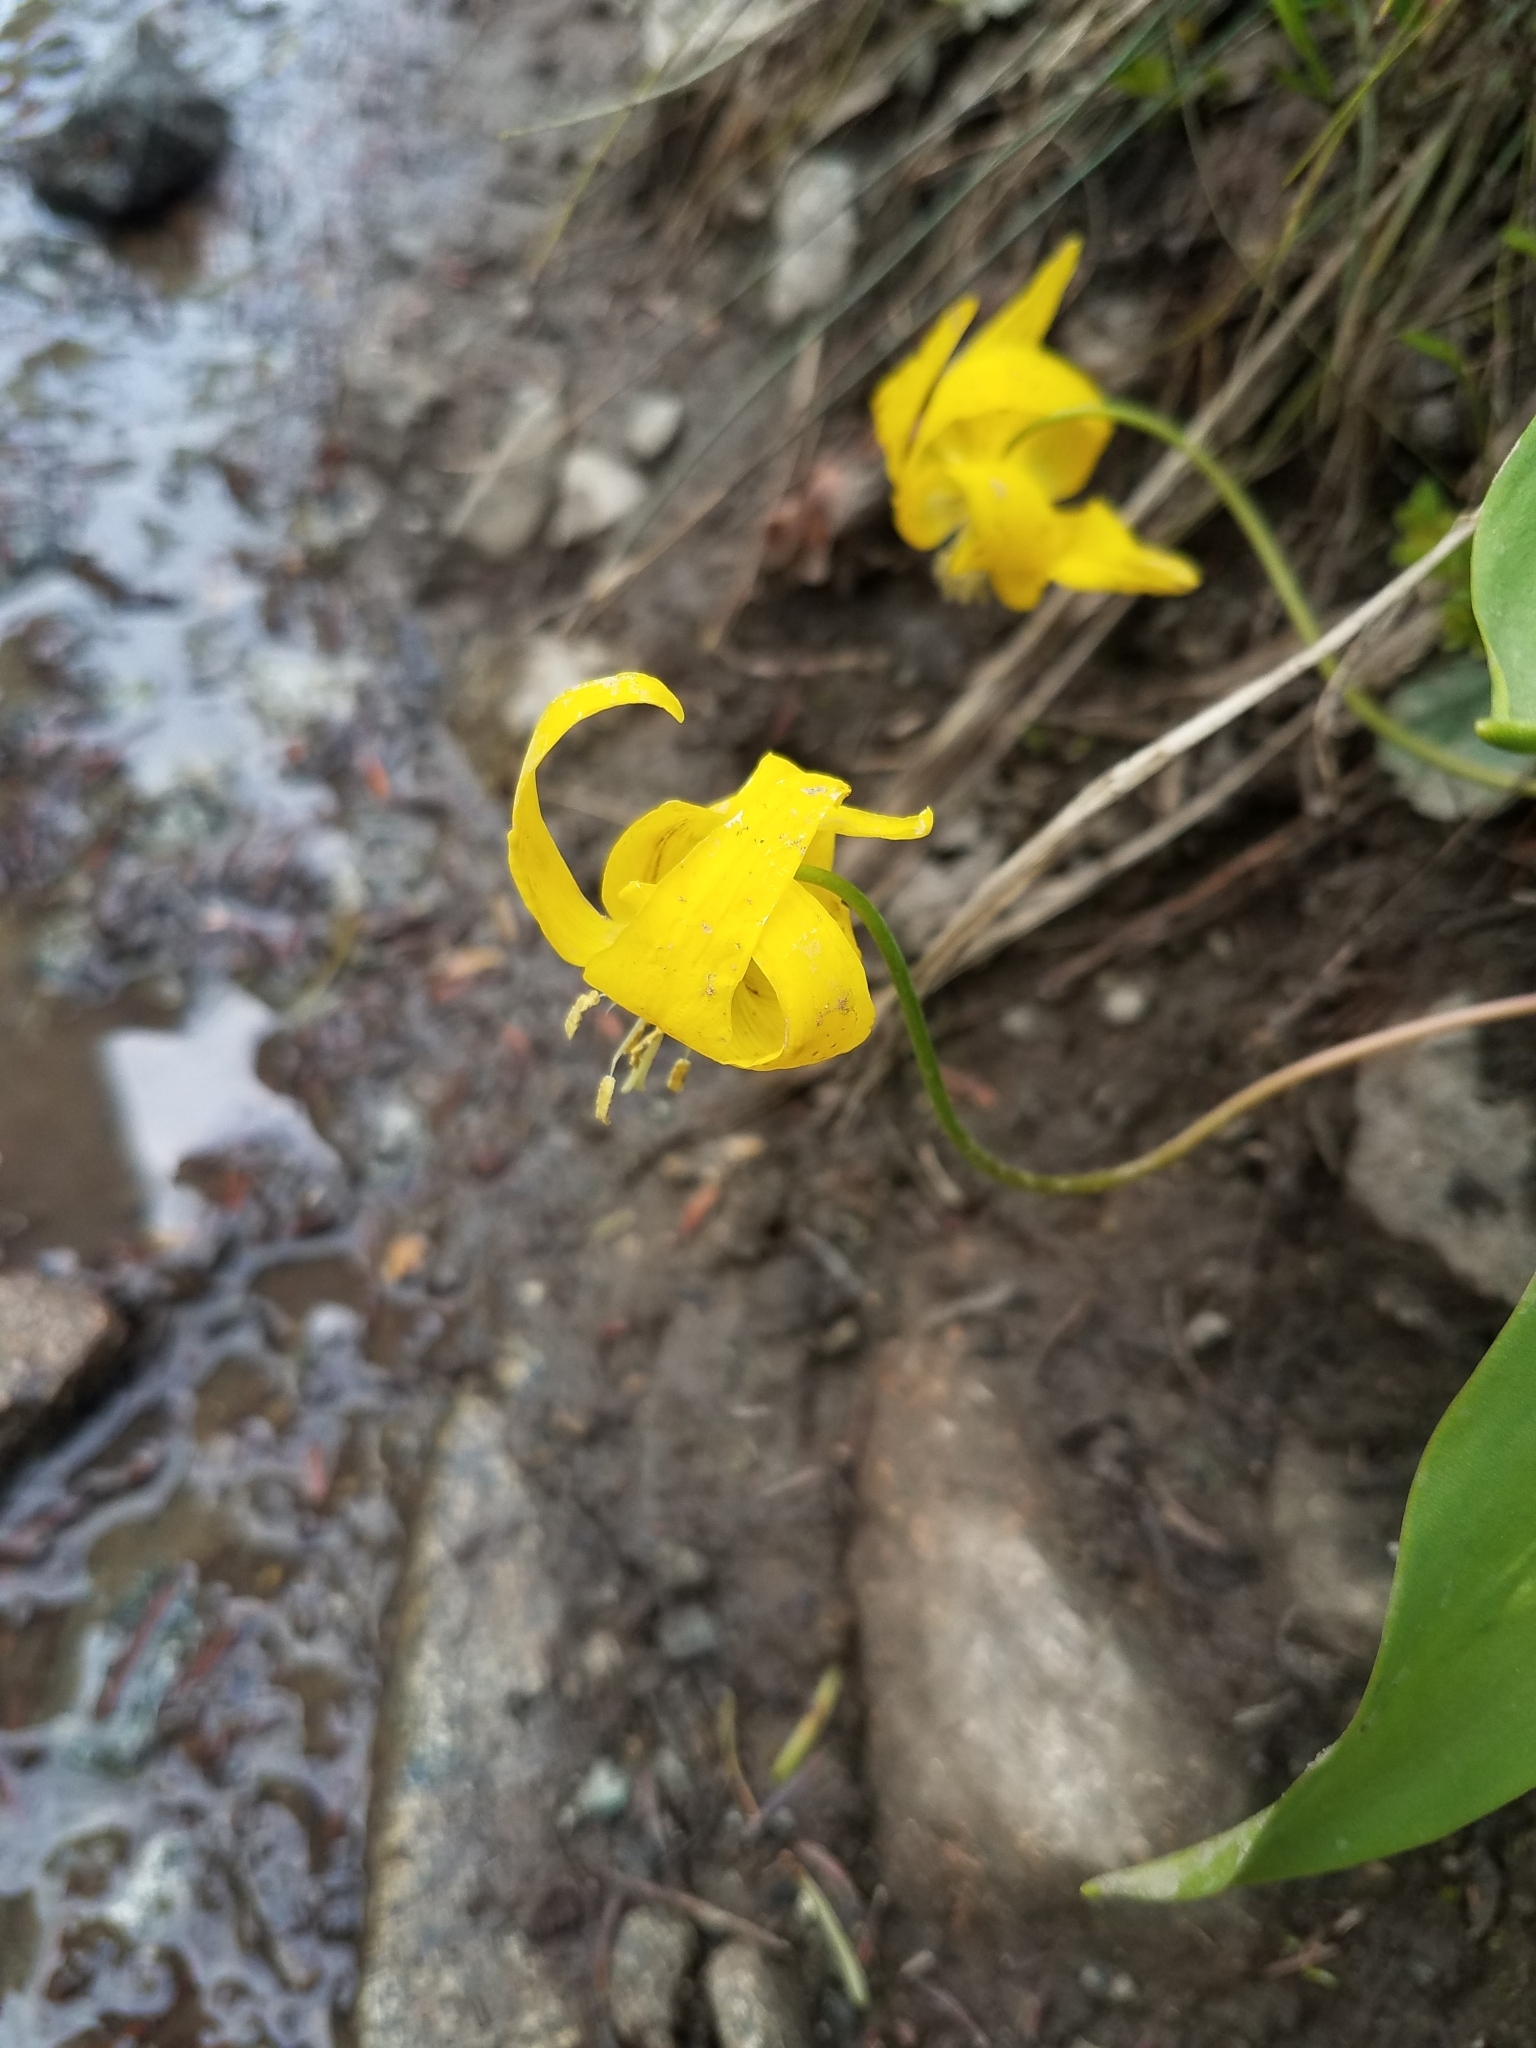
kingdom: Plantae
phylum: Tracheophyta
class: Liliopsida
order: Liliales
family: Liliaceae
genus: Erythronium
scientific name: Erythronium grandiflorum
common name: Avalanche-lily
